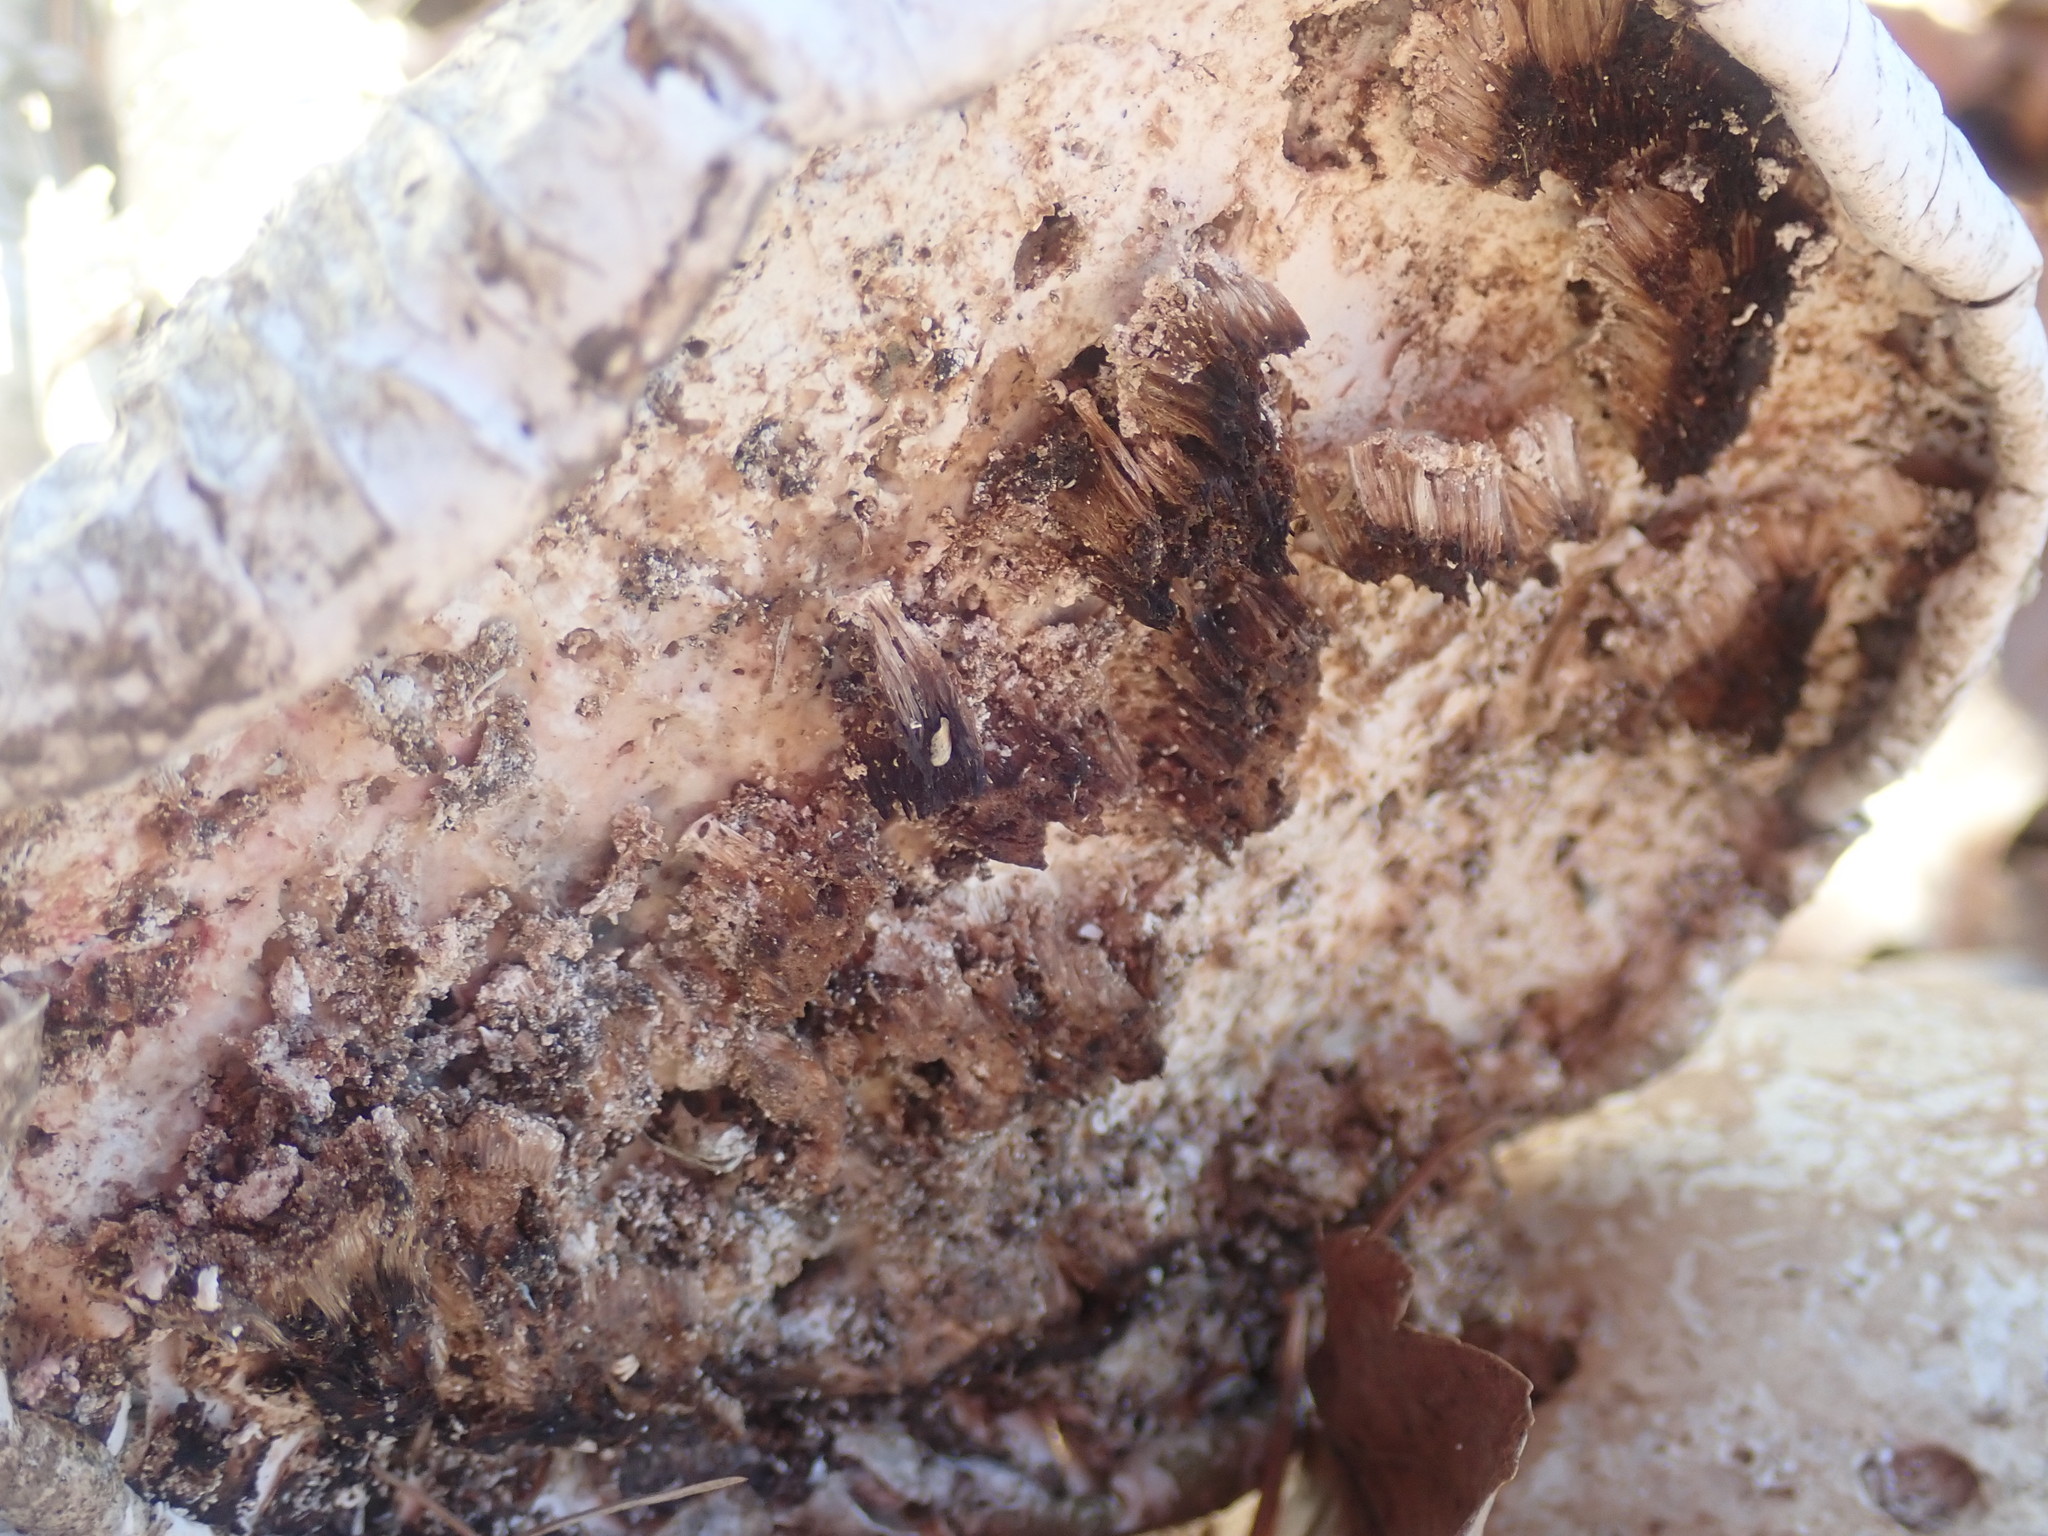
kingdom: Fungi
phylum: Basidiomycota
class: Agaricomycetes
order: Polyporales
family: Fomitopsidaceae
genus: Fomitopsis
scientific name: Fomitopsis betulina
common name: Birch polypore
